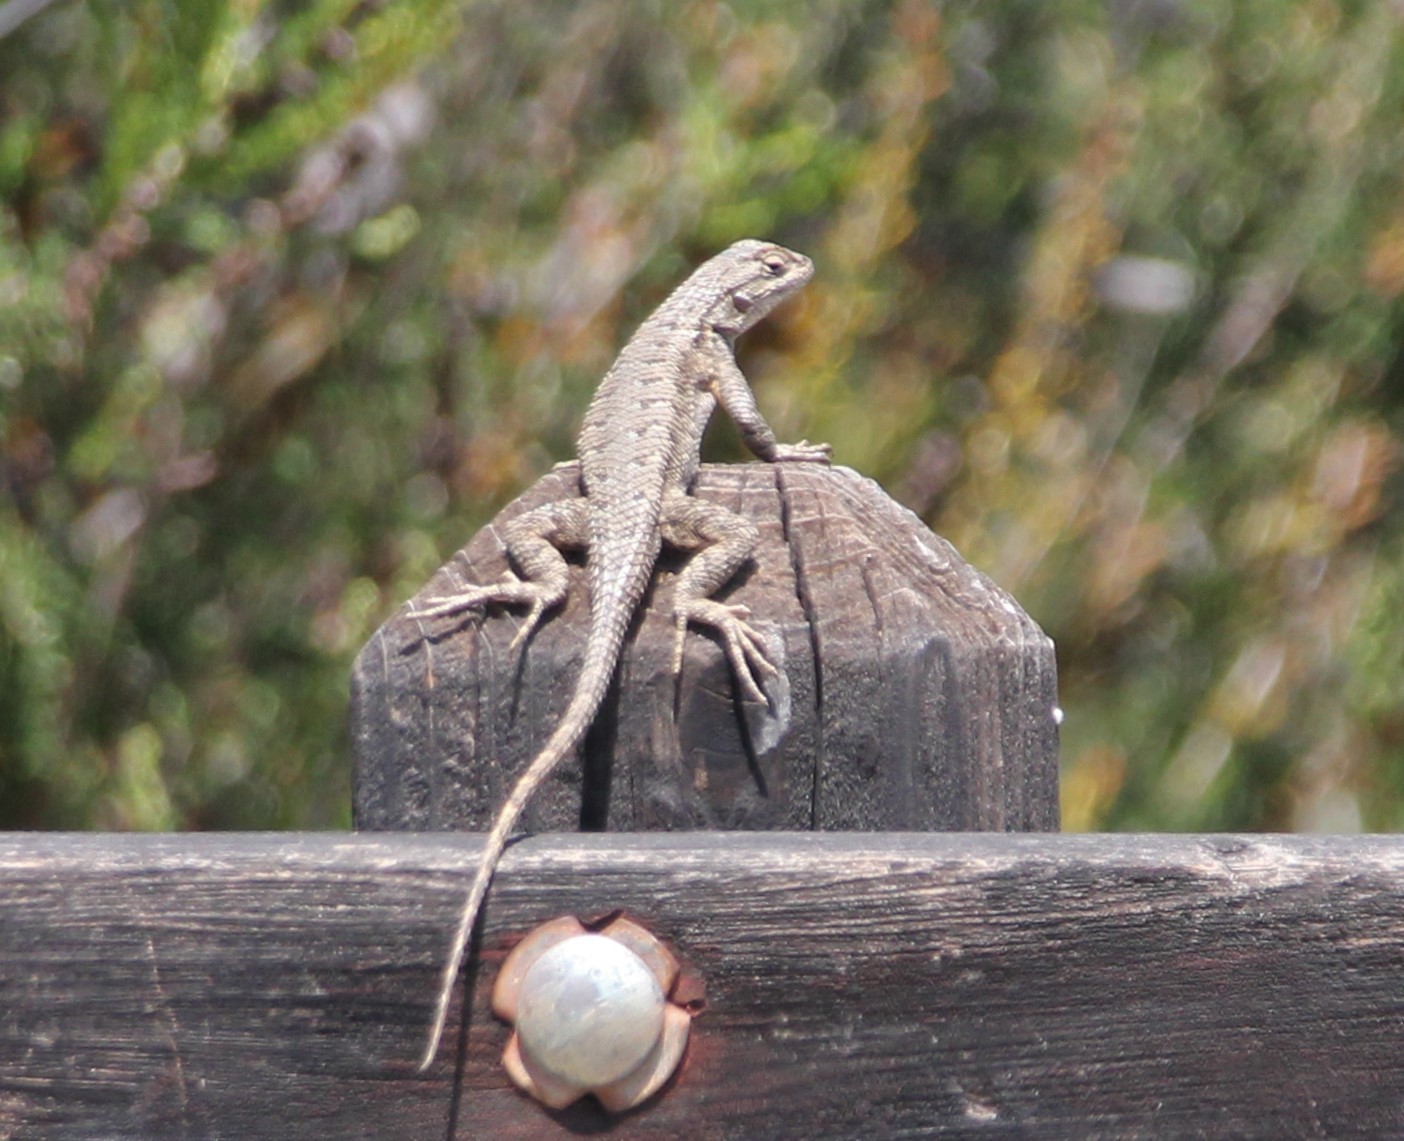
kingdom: Animalia
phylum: Chordata
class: Squamata
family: Phrynosomatidae
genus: Sceloporus
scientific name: Sceloporus occidentalis
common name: Western fence lizard
